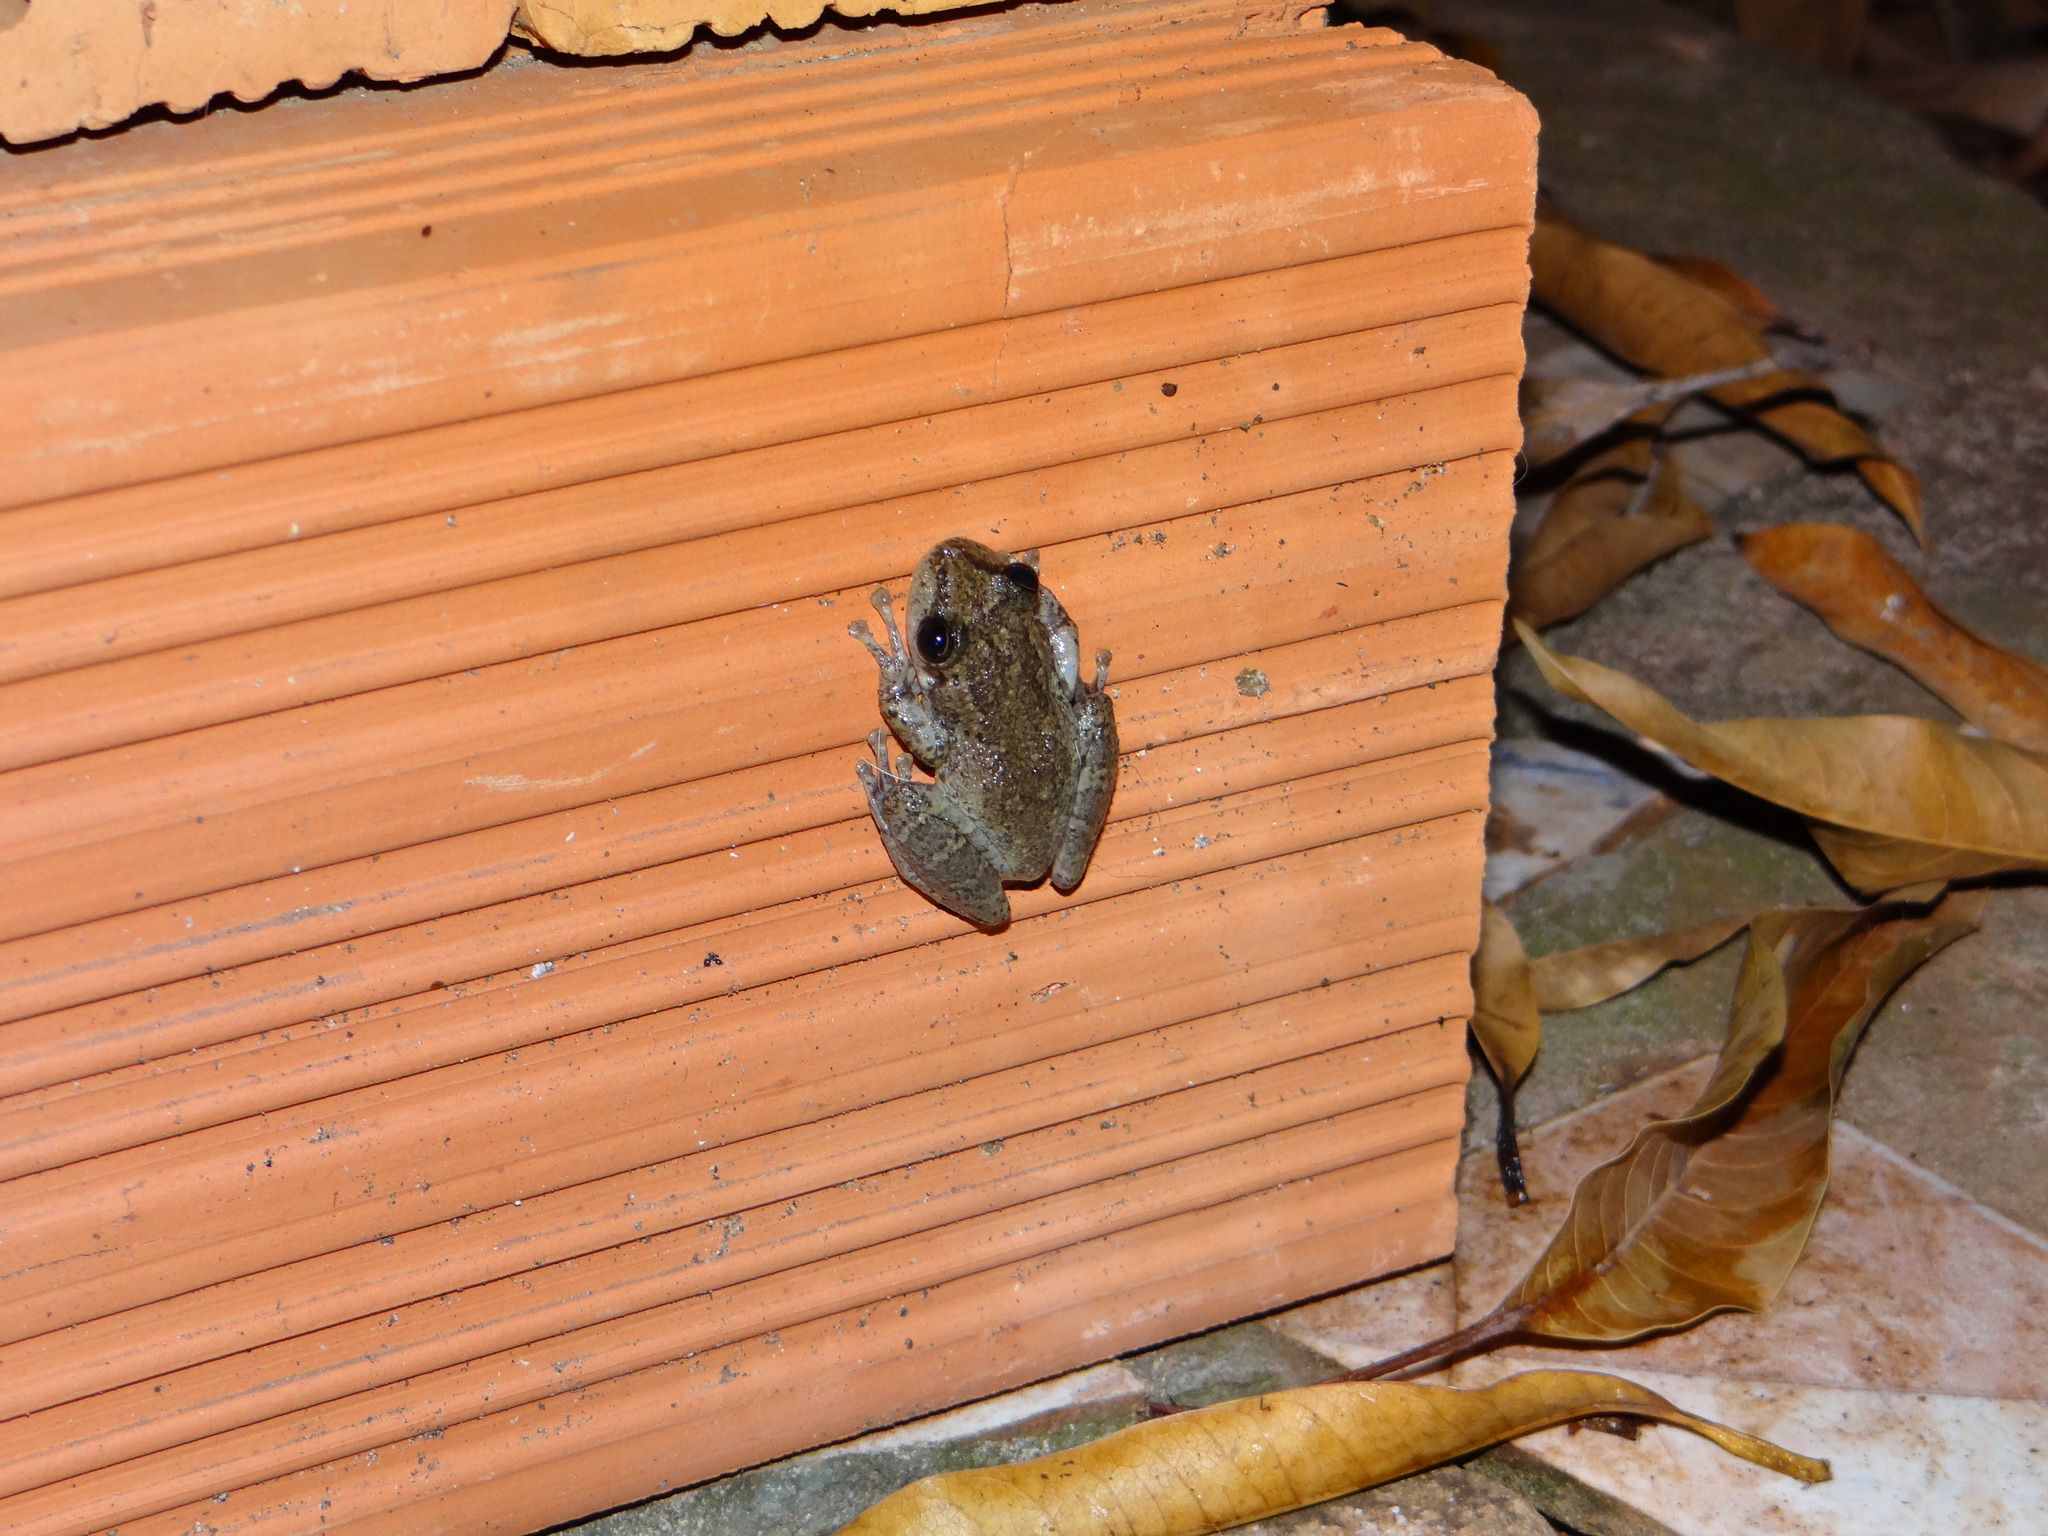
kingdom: Animalia
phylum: Chordata
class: Amphibia
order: Anura
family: Hylidae
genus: Scinax
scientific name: Scinax ruber
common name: Red snouted treefrog
